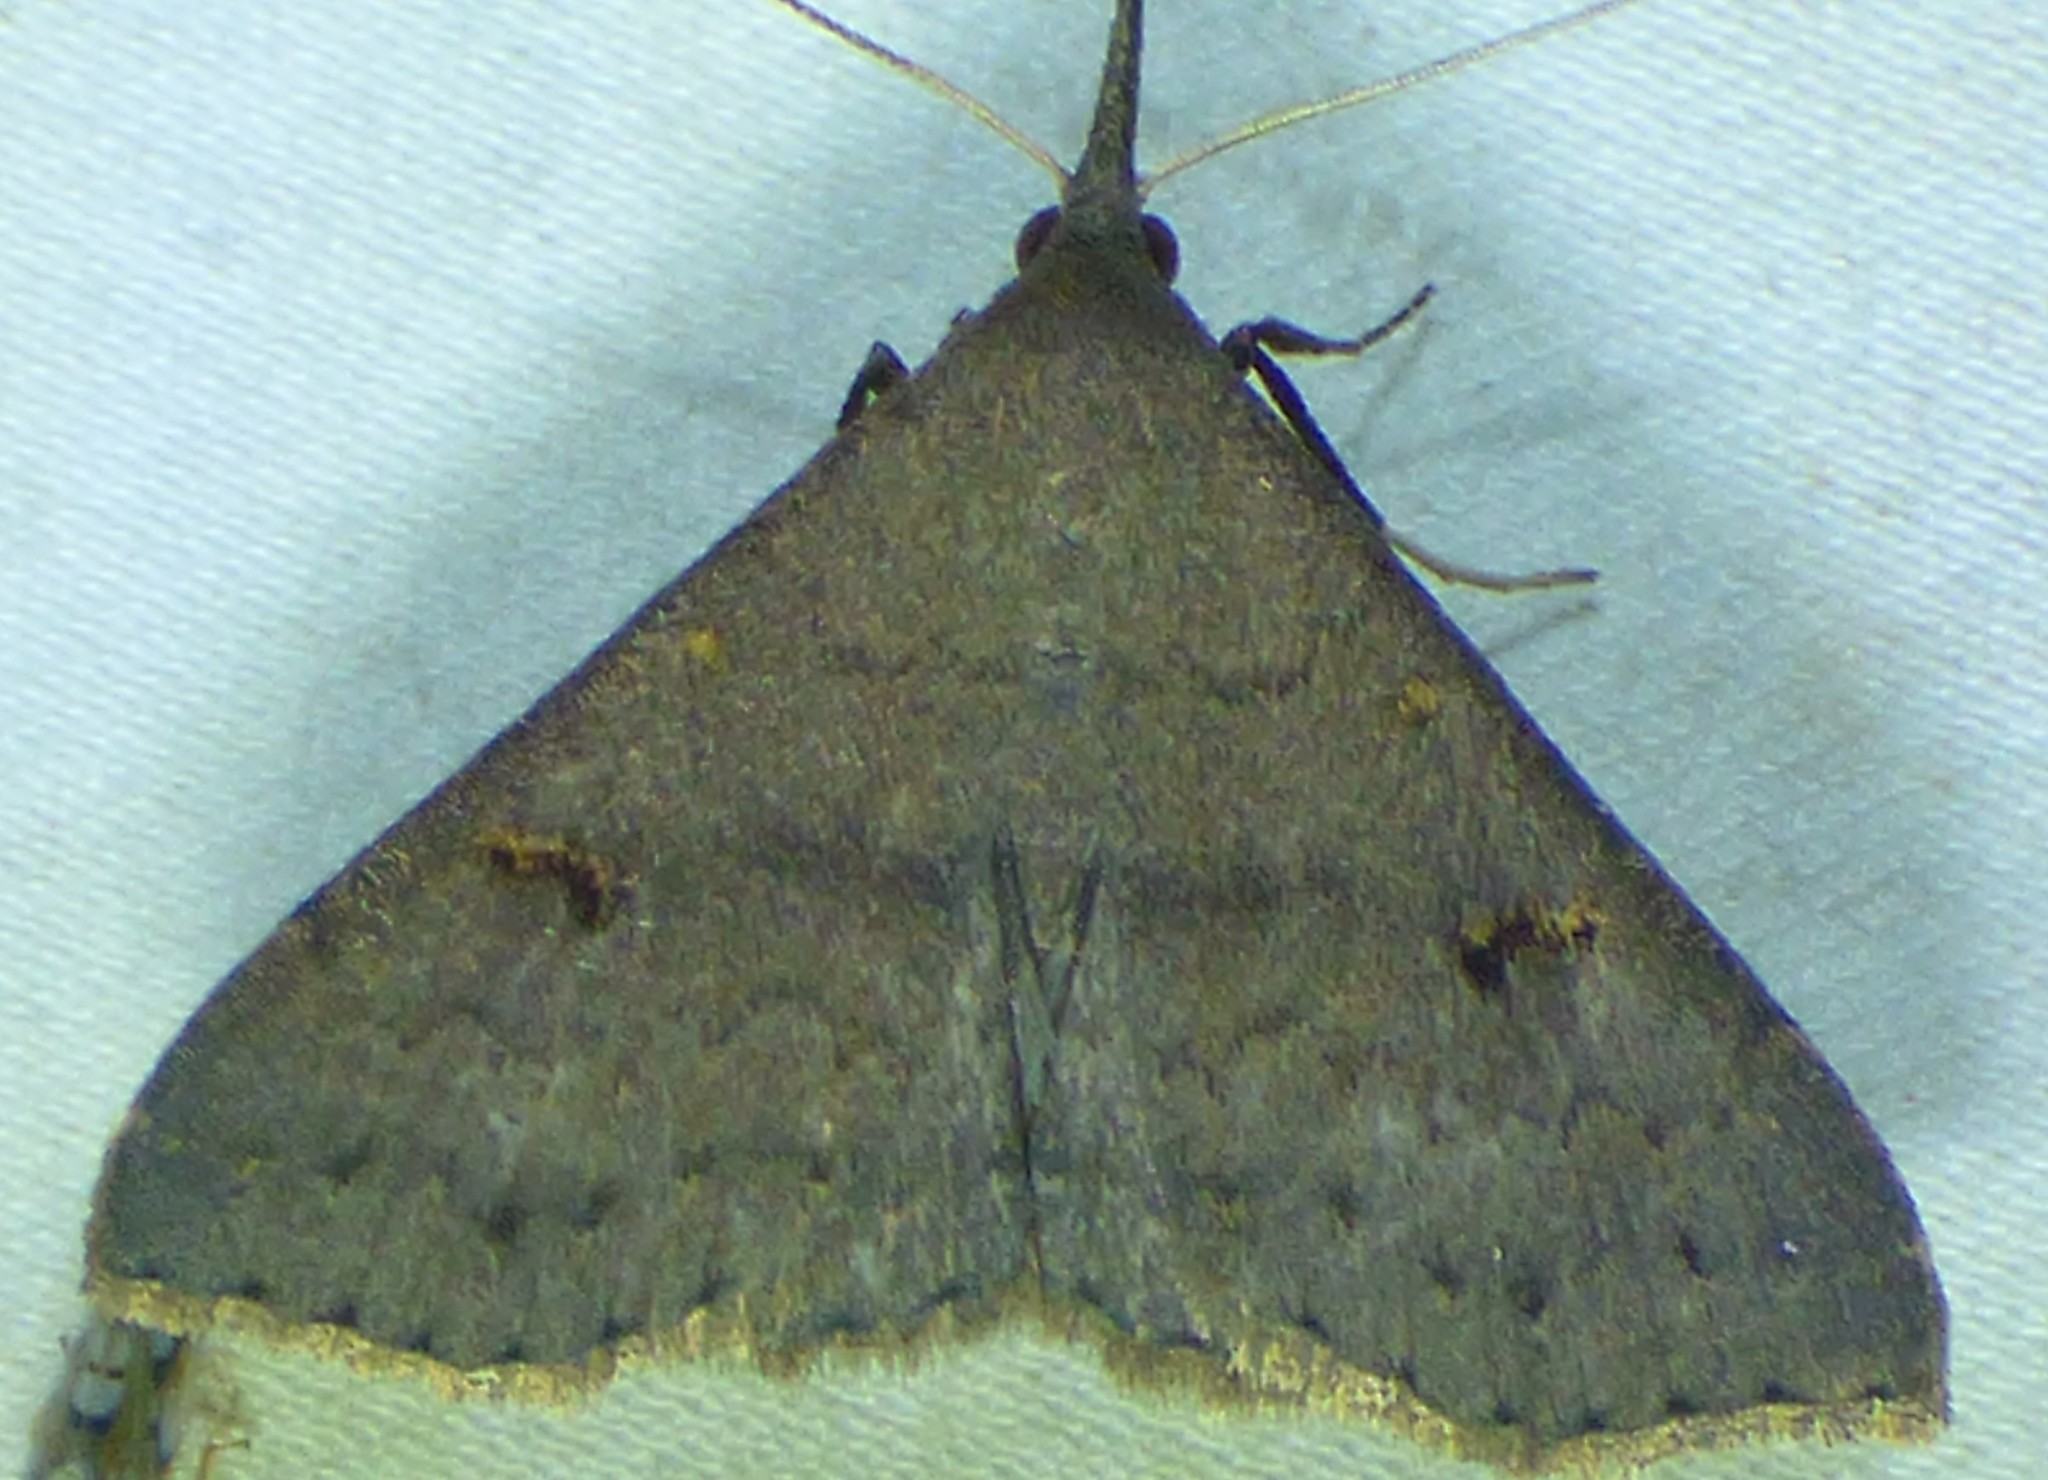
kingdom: Animalia
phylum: Arthropoda
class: Insecta
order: Lepidoptera
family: Erebidae
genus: Renia
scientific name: Renia adspergillus
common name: Speckled renia moth
